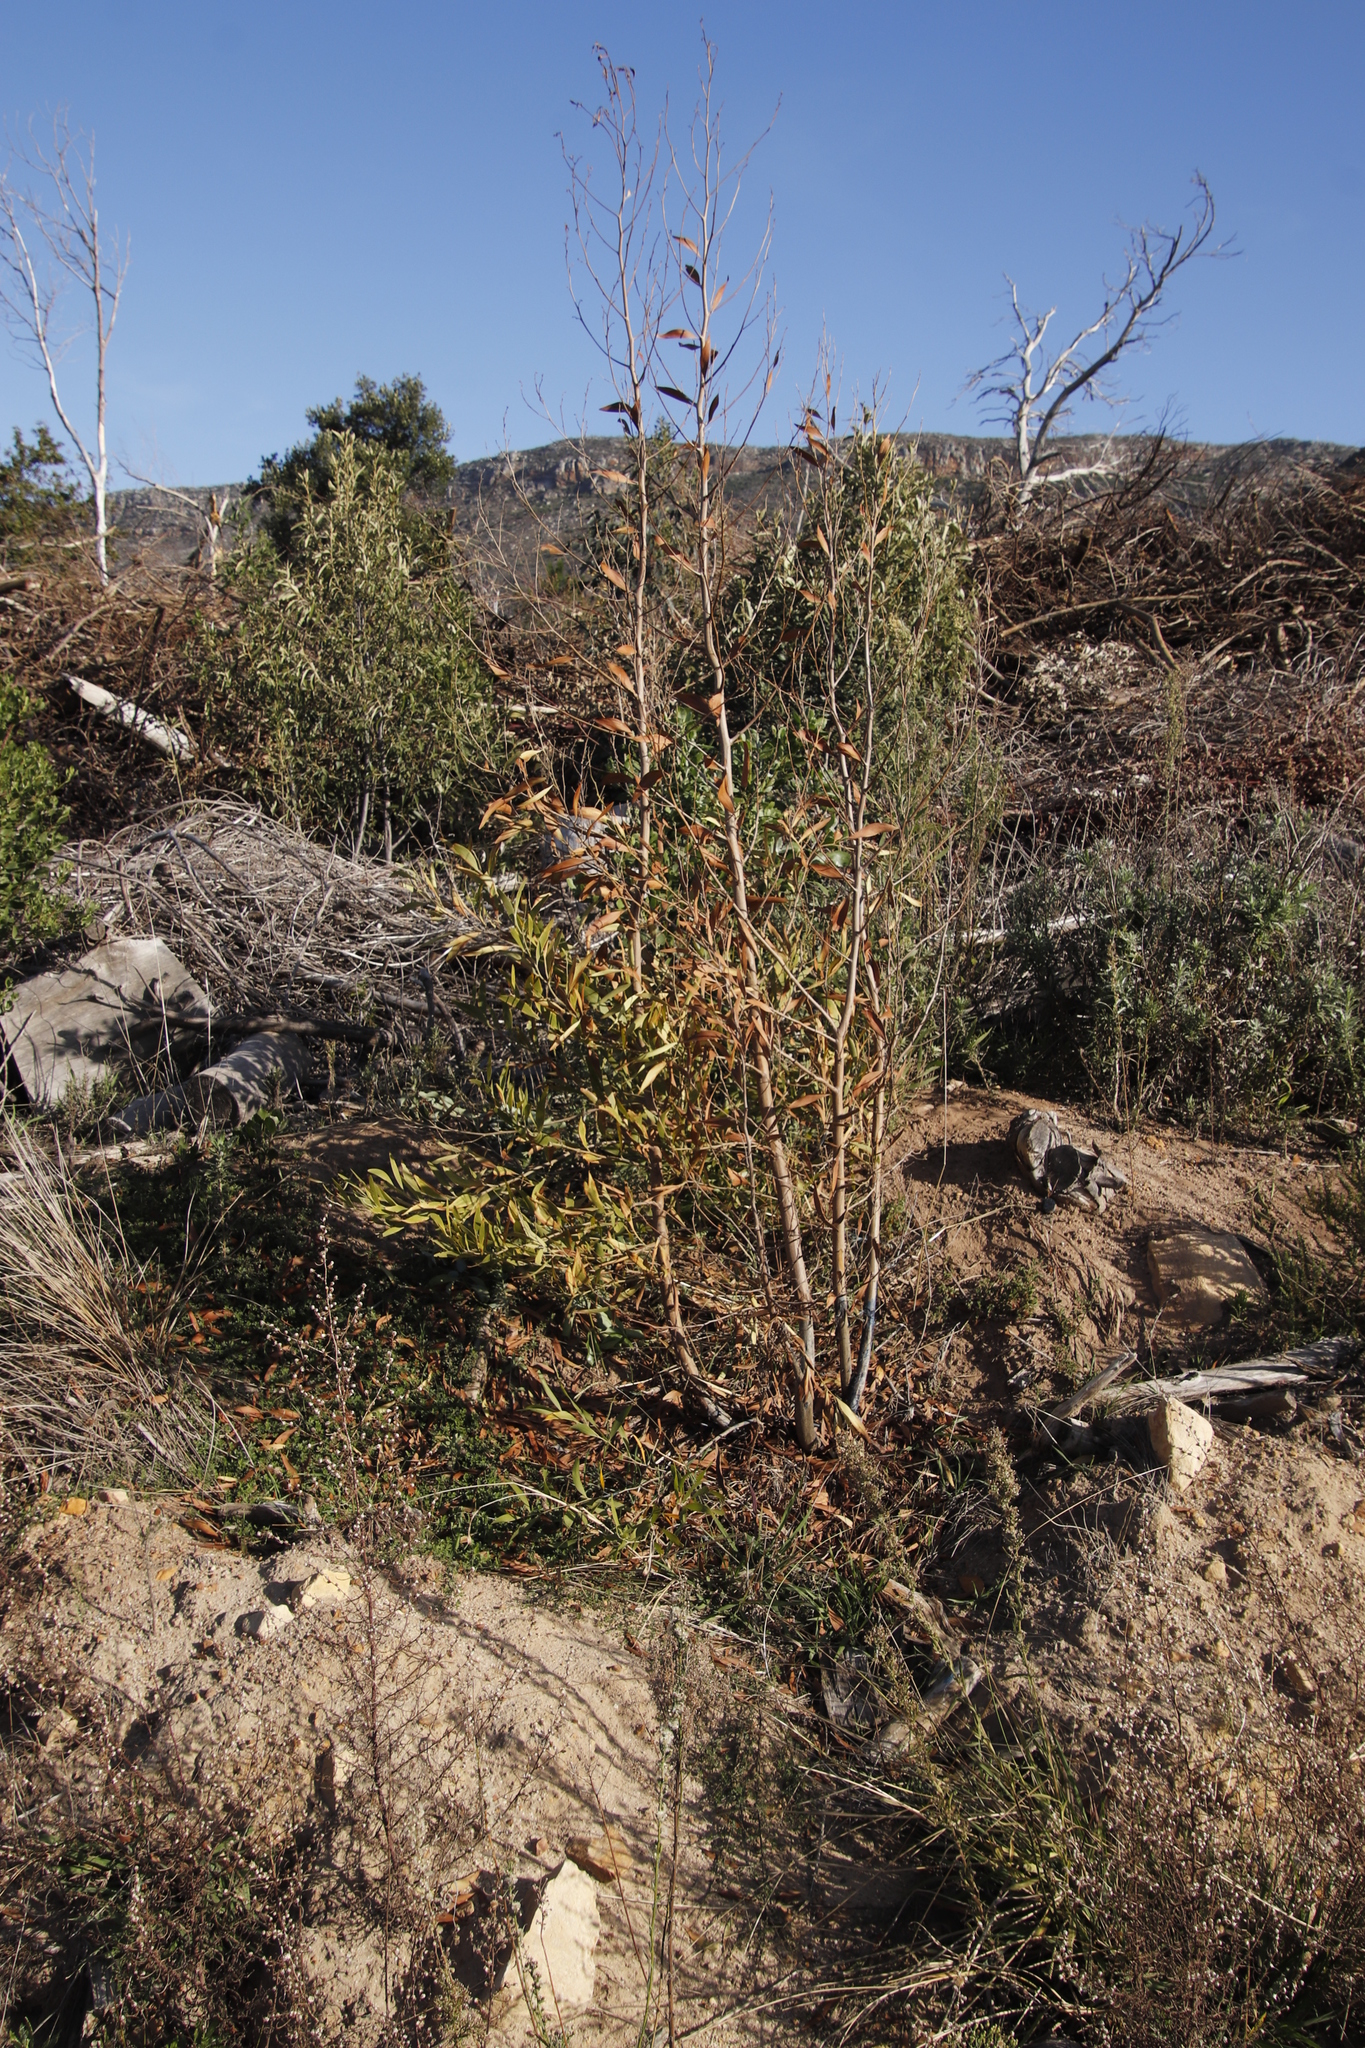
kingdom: Plantae
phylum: Tracheophyta
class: Magnoliopsida
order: Fabales
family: Fabaceae
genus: Acacia
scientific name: Acacia melanoxylon
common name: Blackwood
